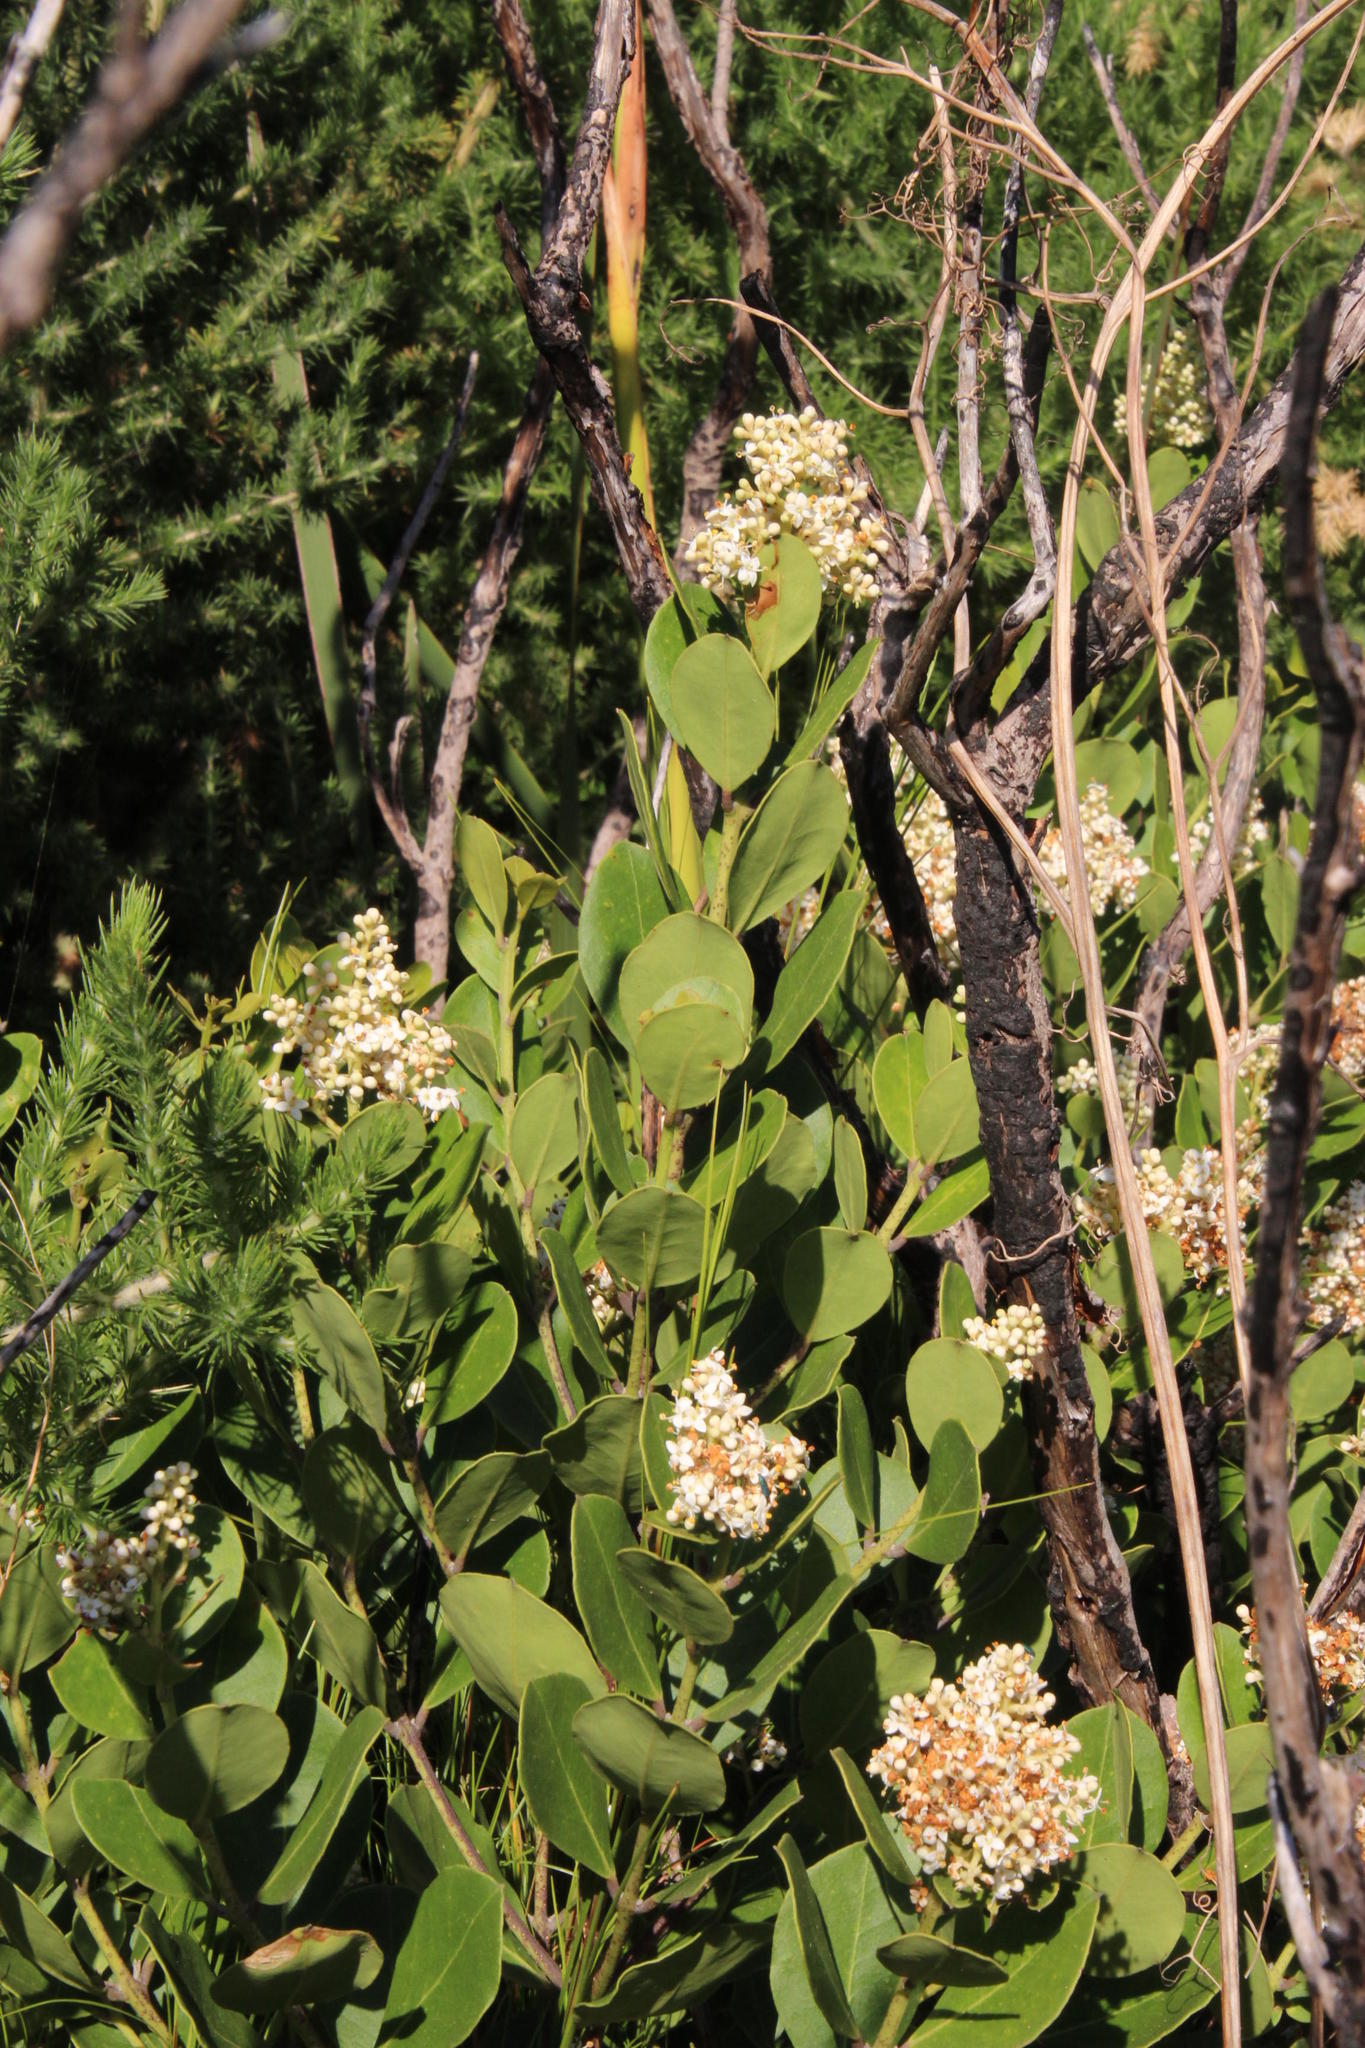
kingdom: Plantae
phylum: Tracheophyta
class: Magnoliopsida
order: Lamiales
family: Oleaceae
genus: Olea
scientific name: Olea capensis
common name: Black ironwood
